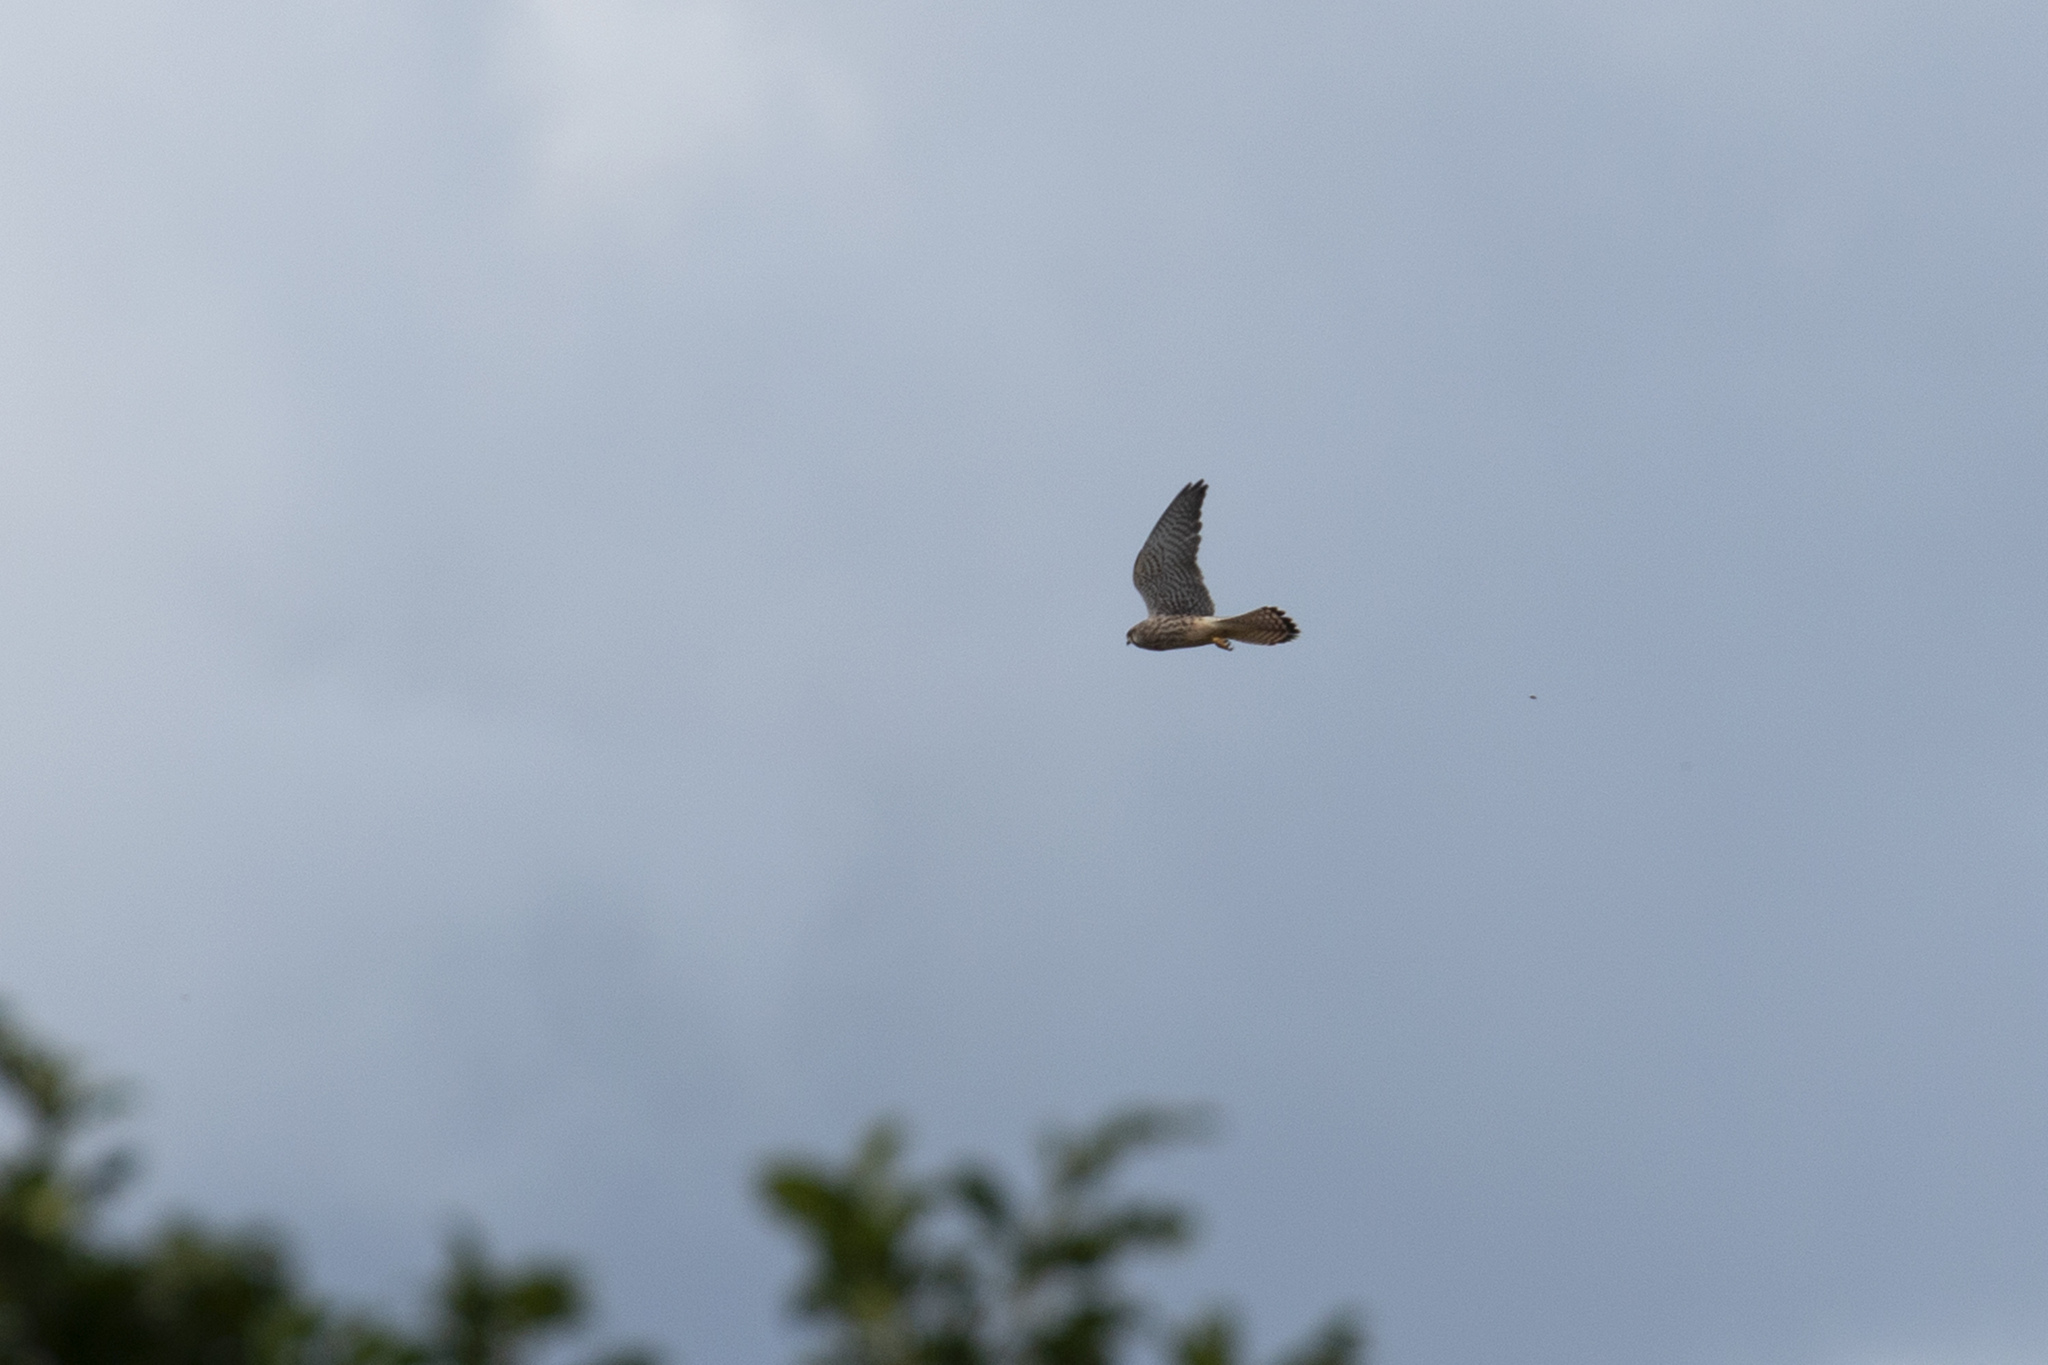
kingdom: Animalia
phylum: Chordata
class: Aves
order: Falconiformes
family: Falconidae
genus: Falco
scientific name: Falco tinnunculus
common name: Common kestrel
